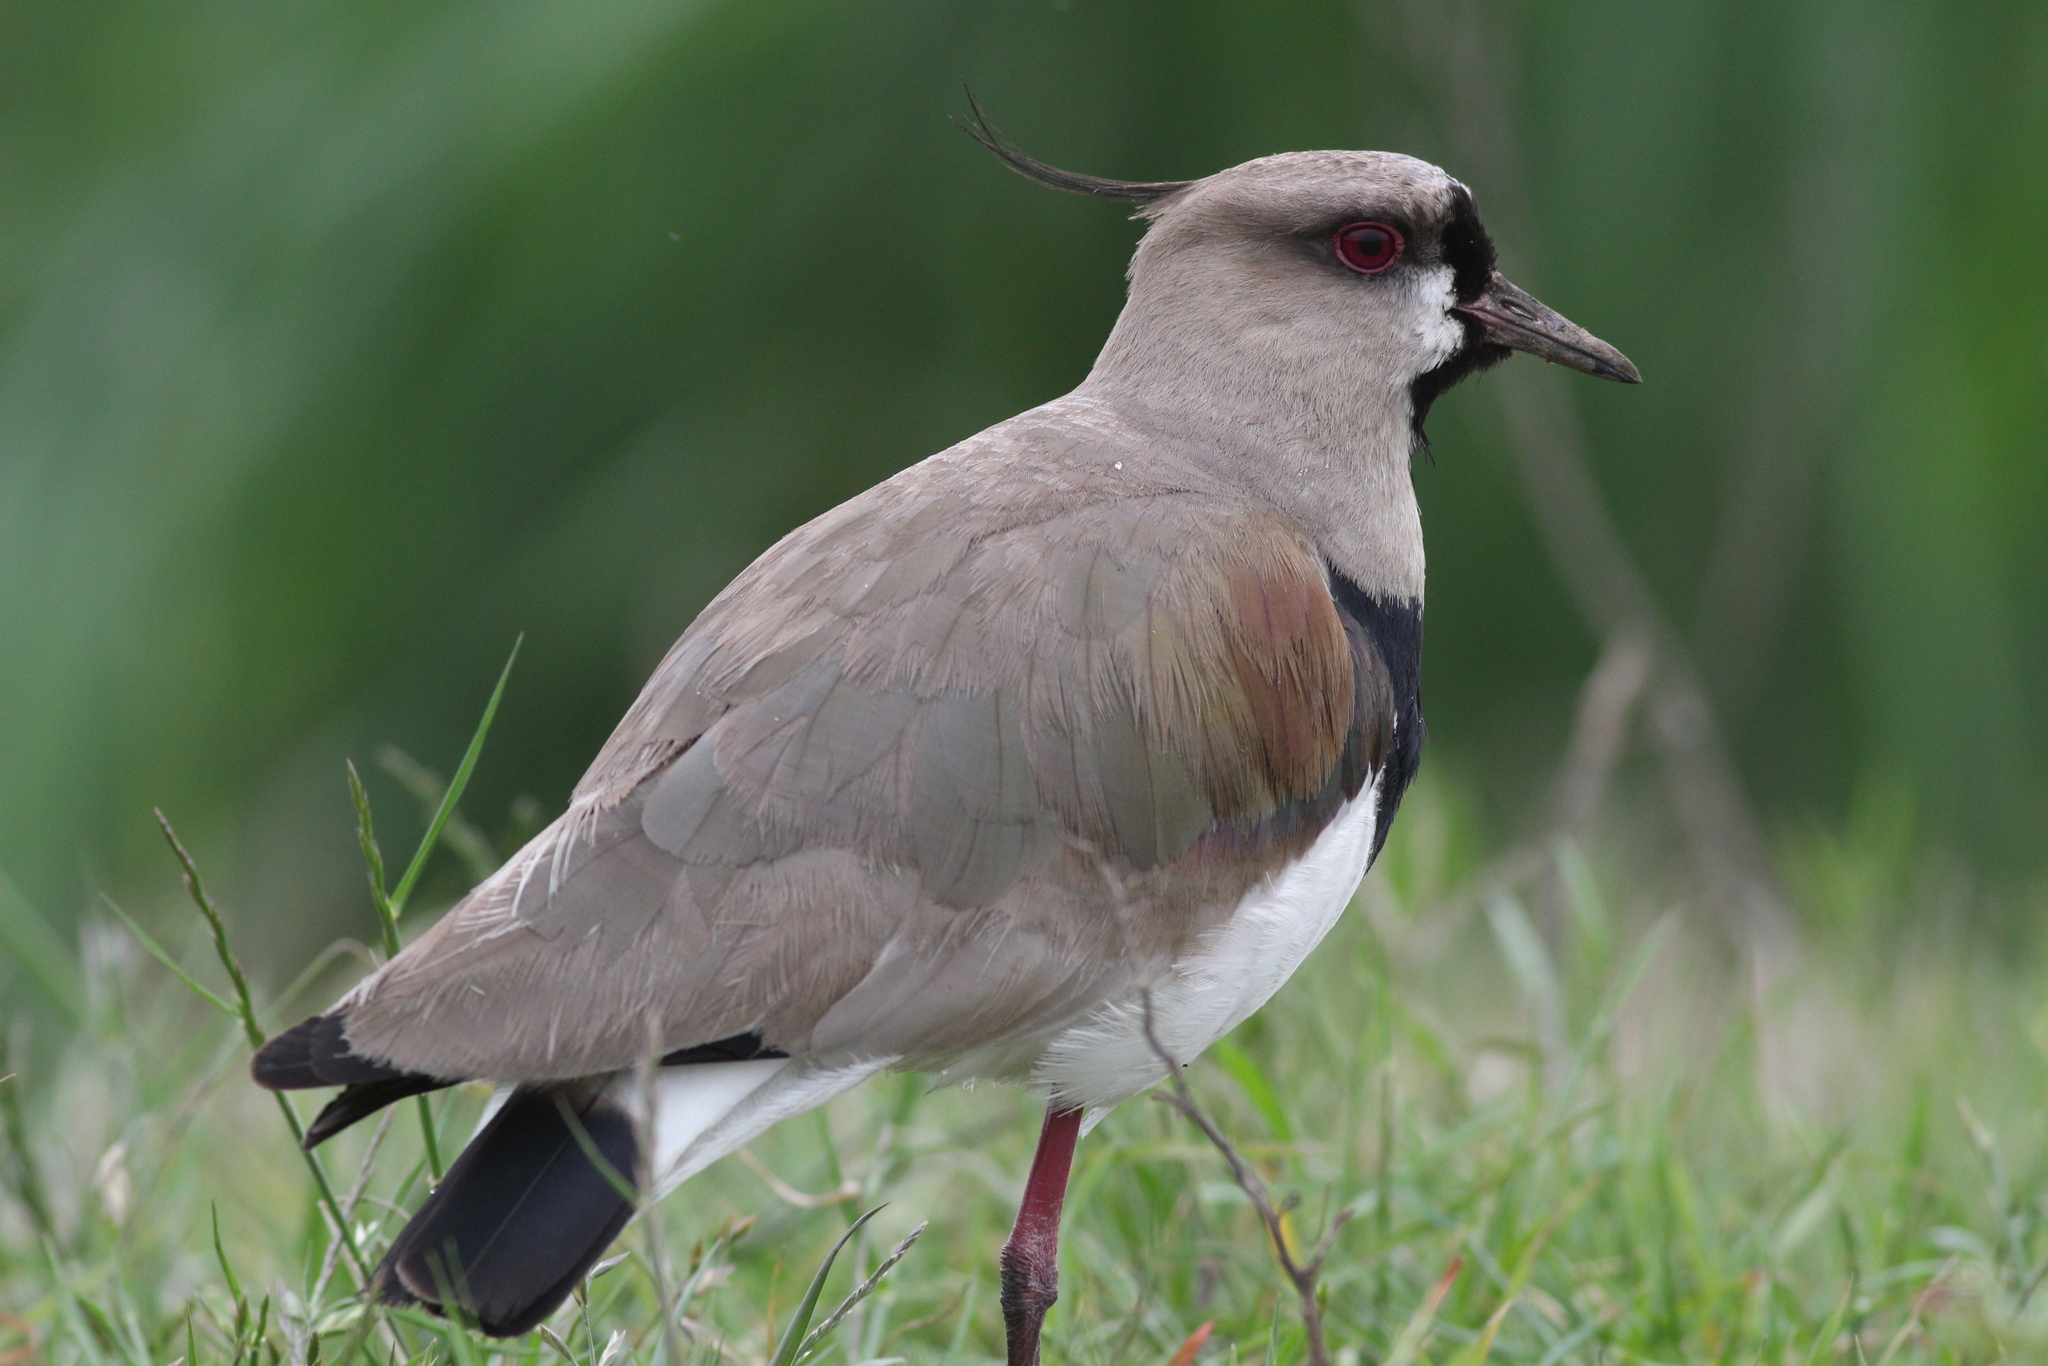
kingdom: Animalia
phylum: Chordata
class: Aves
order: Charadriiformes
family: Charadriidae
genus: Vanellus
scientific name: Vanellus chilensis
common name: Southern lapwing
